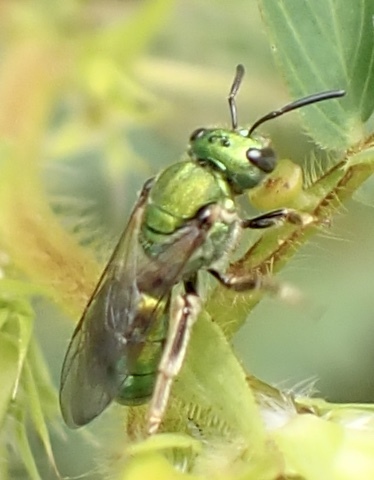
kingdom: Animalia
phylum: Arthropoda
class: Insecta
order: Hymenoptera
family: Halictidae
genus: Augochlora
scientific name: Augochlora pura
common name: Pure green sweat bee
